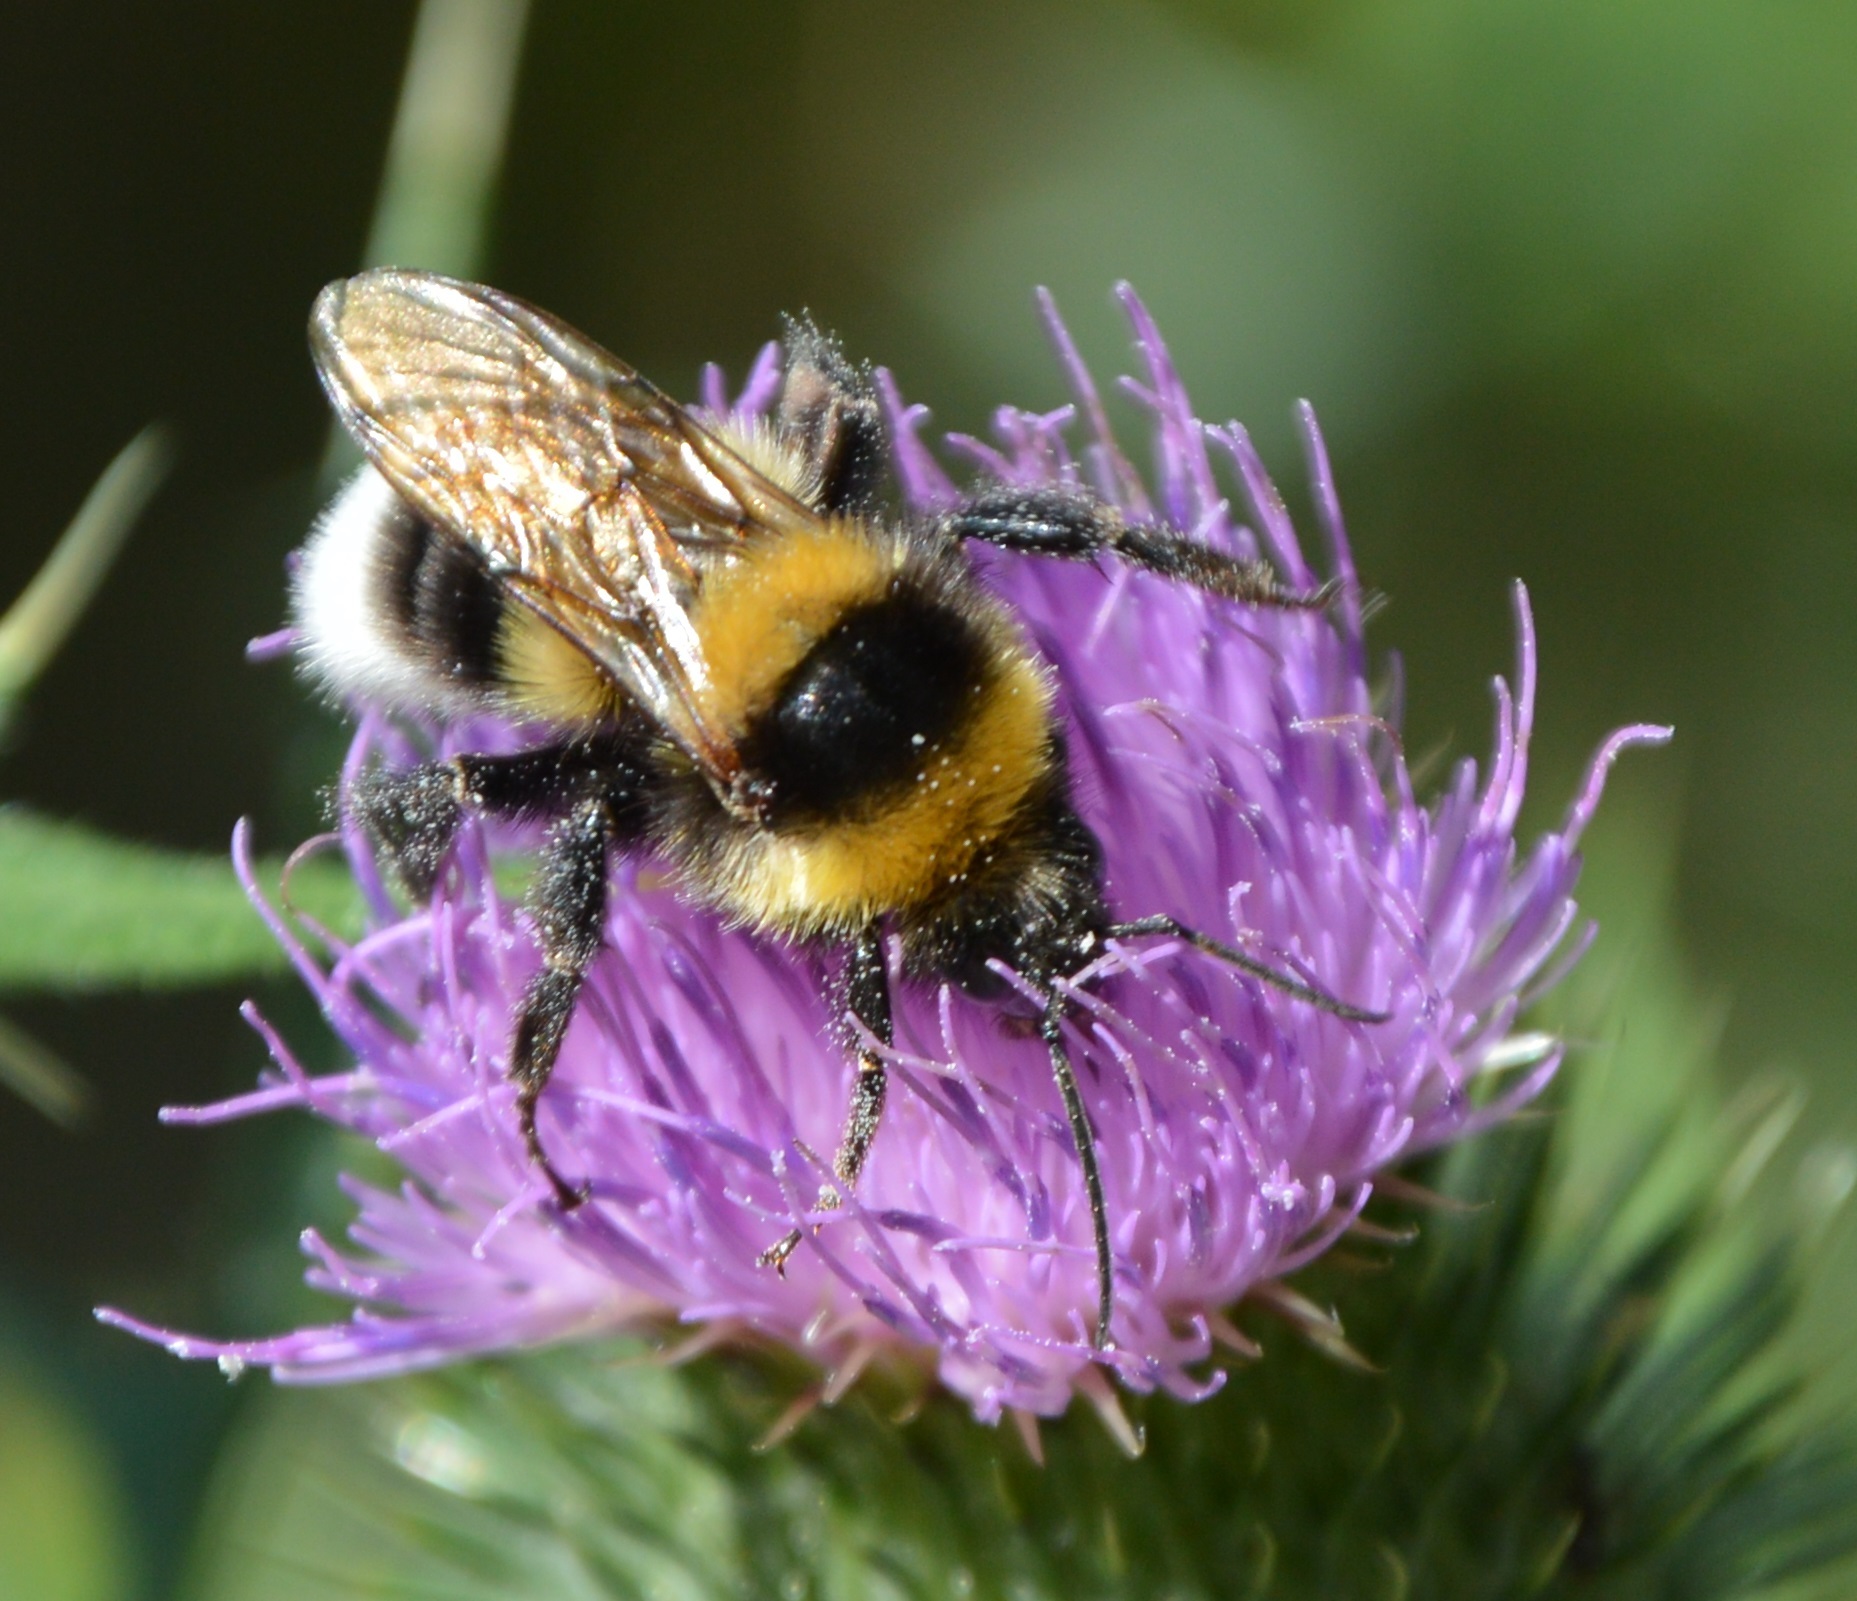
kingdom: Animalia
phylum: Arthropoda
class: Insecta
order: Hymenoptera
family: Apidae
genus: Bombus
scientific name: Bombus ruderatus
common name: Large garden bumblebee
